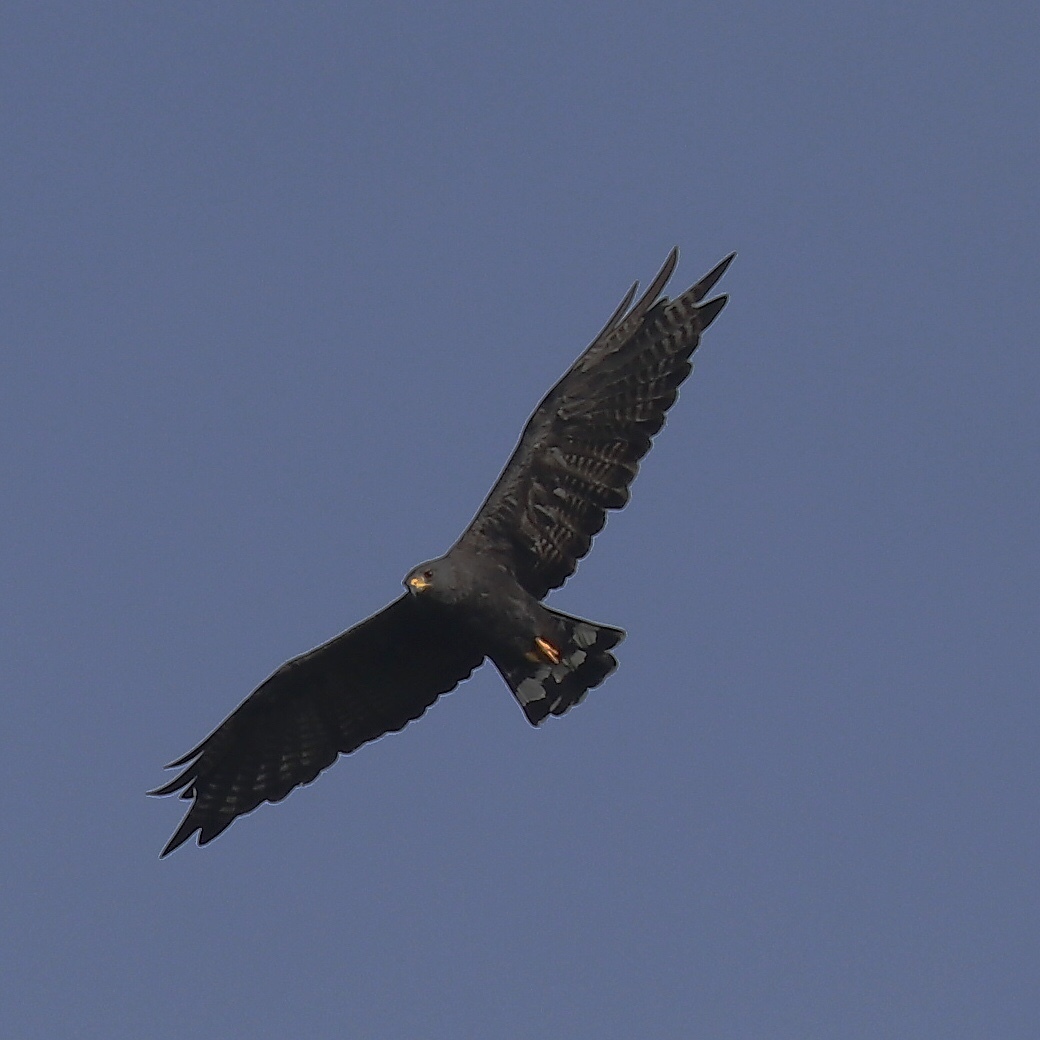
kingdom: Animalia
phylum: Chordata
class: Aves
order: Accipitriformes
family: Accipitridae
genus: Buteo
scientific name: Buteo albonotatus
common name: Zone-tailed hawk
